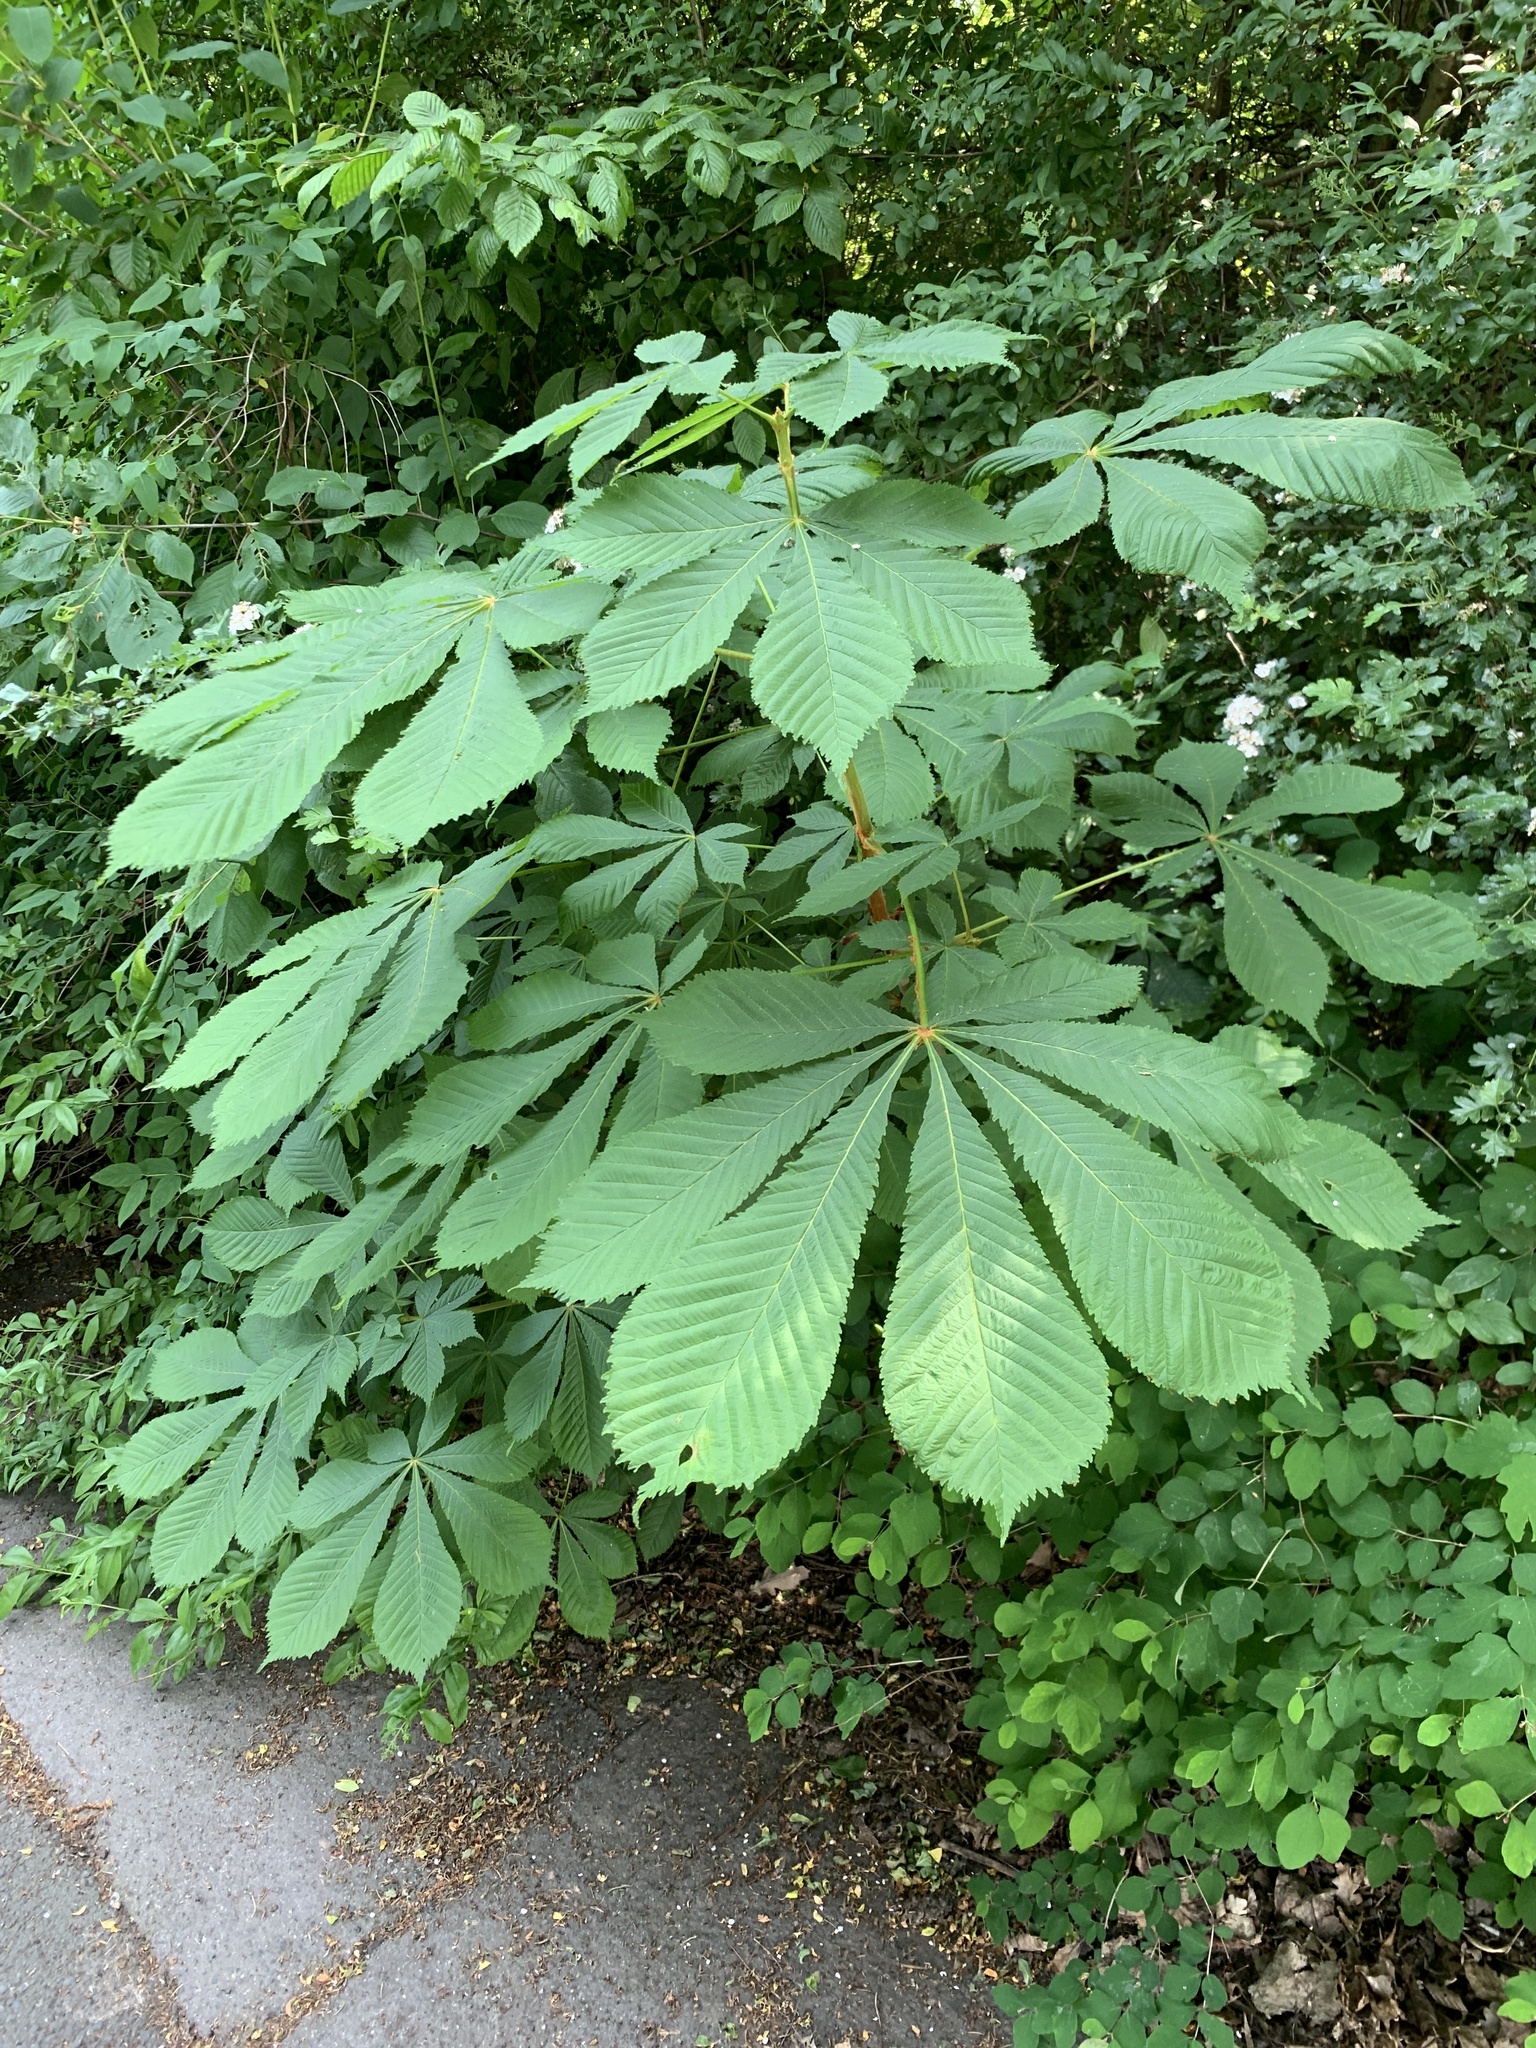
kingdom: Plantae
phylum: Tracheophyta
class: Magnoliopsida
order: Sapindales
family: Sapindaceae
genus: Aesculus
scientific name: Aesculus hippocastanum
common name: Horse-chestnut
